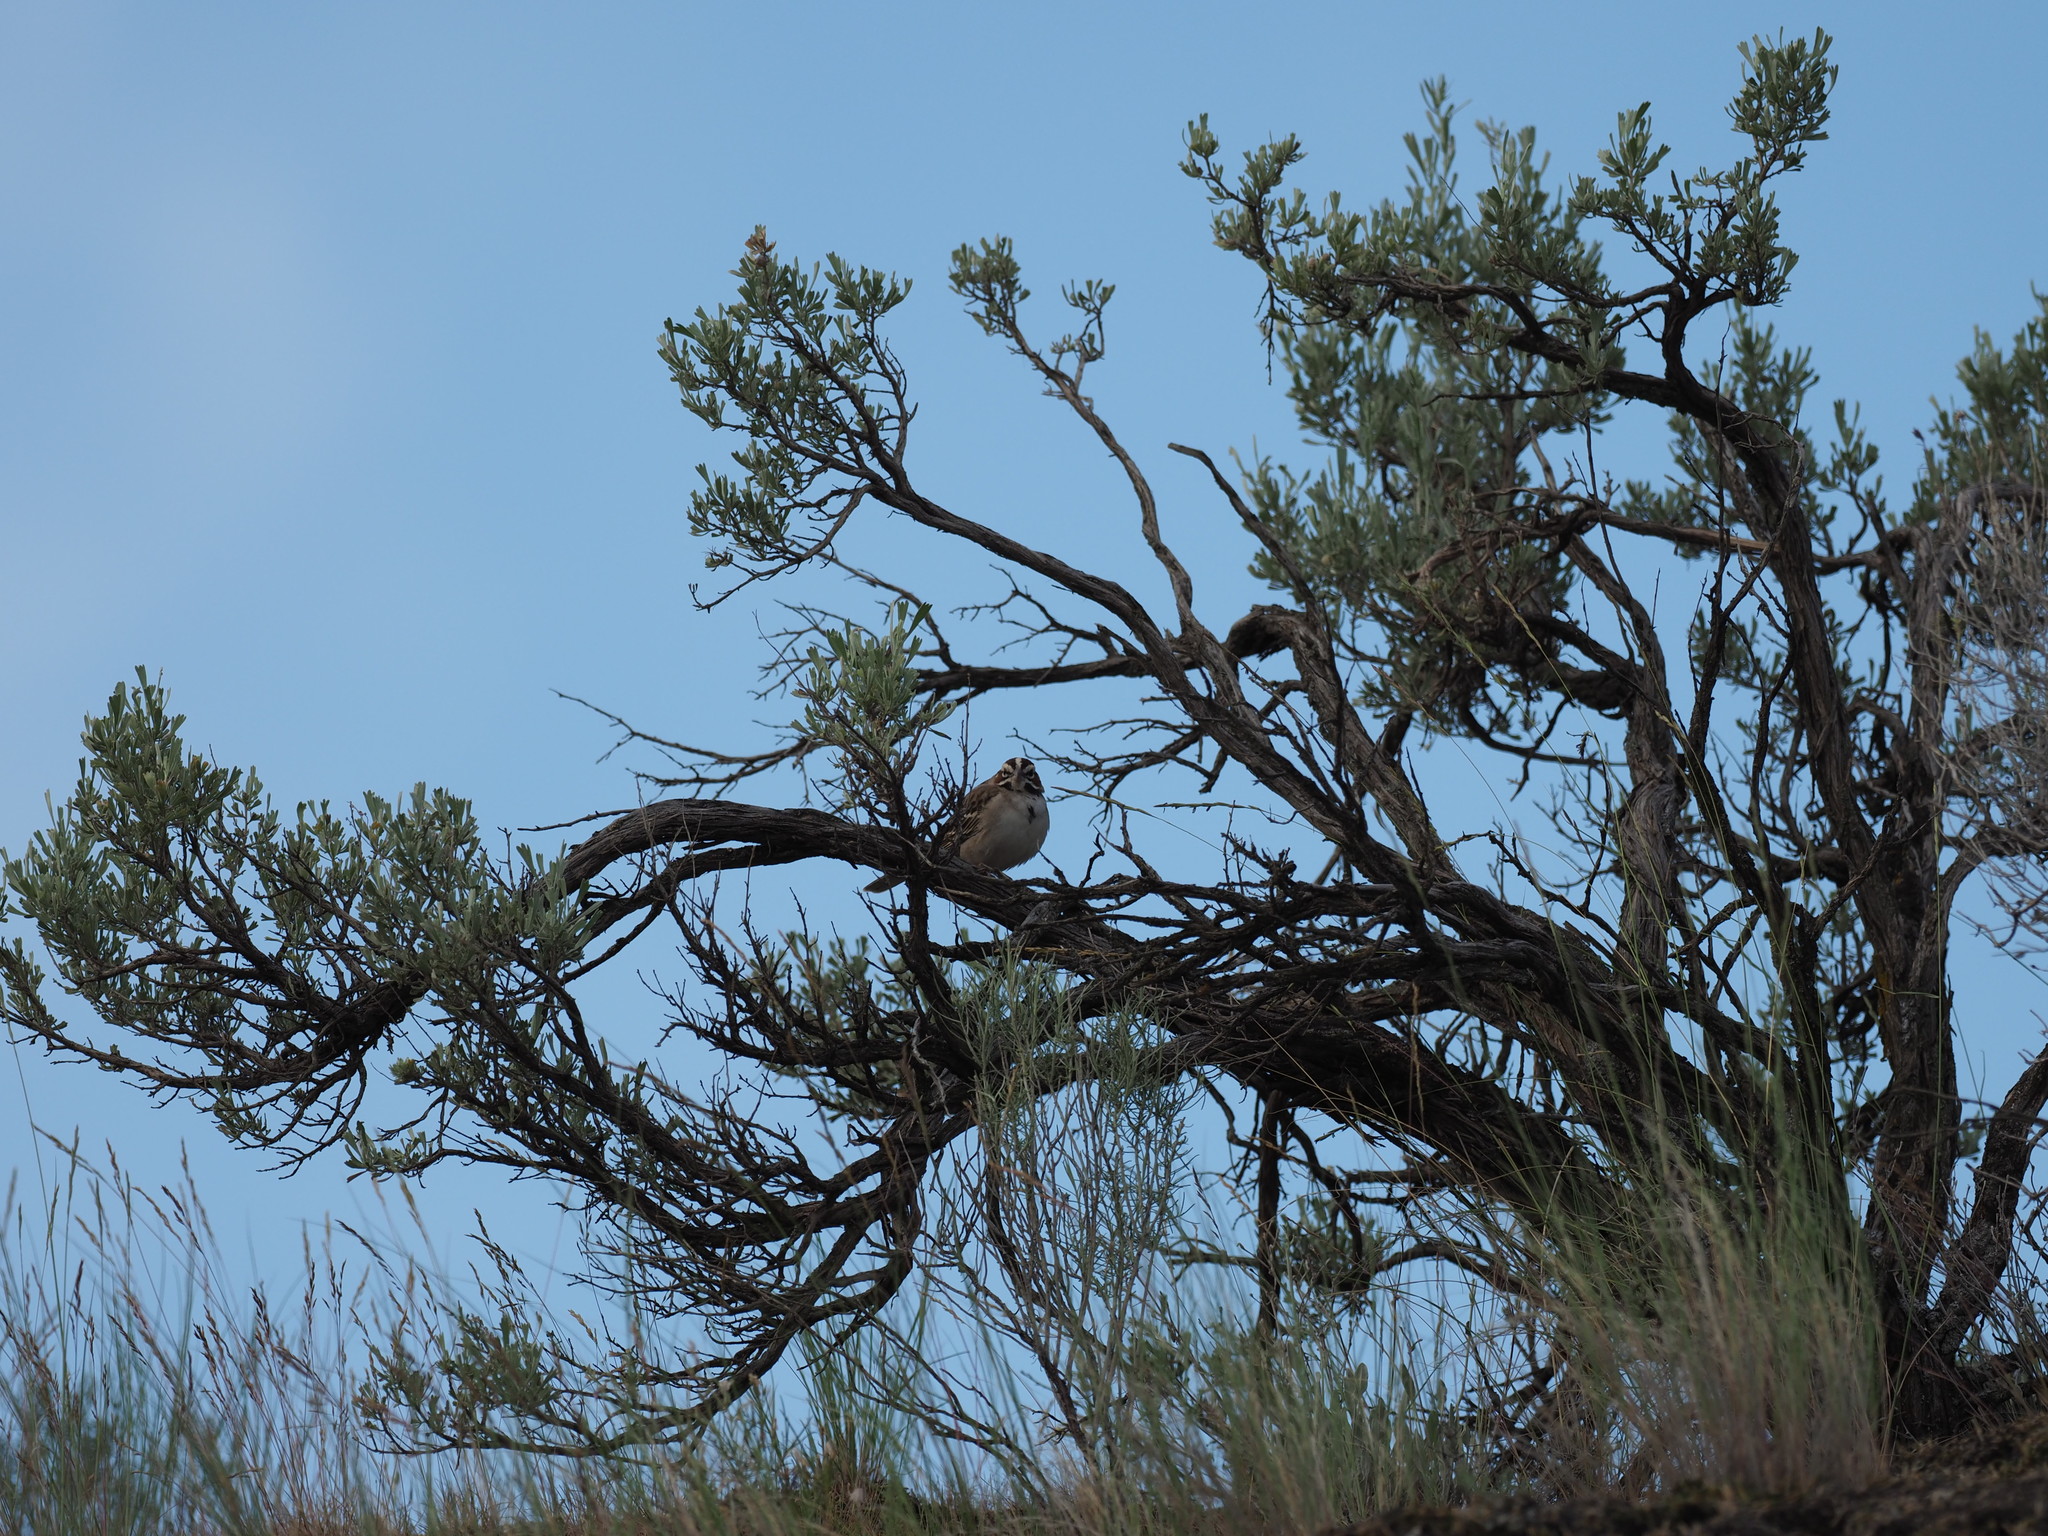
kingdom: Animalia
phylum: Chordata
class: Aves
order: Passeriformes
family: Passerellidae
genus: Chondestes
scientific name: Chondestes grammacus
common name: Lark sparrow
